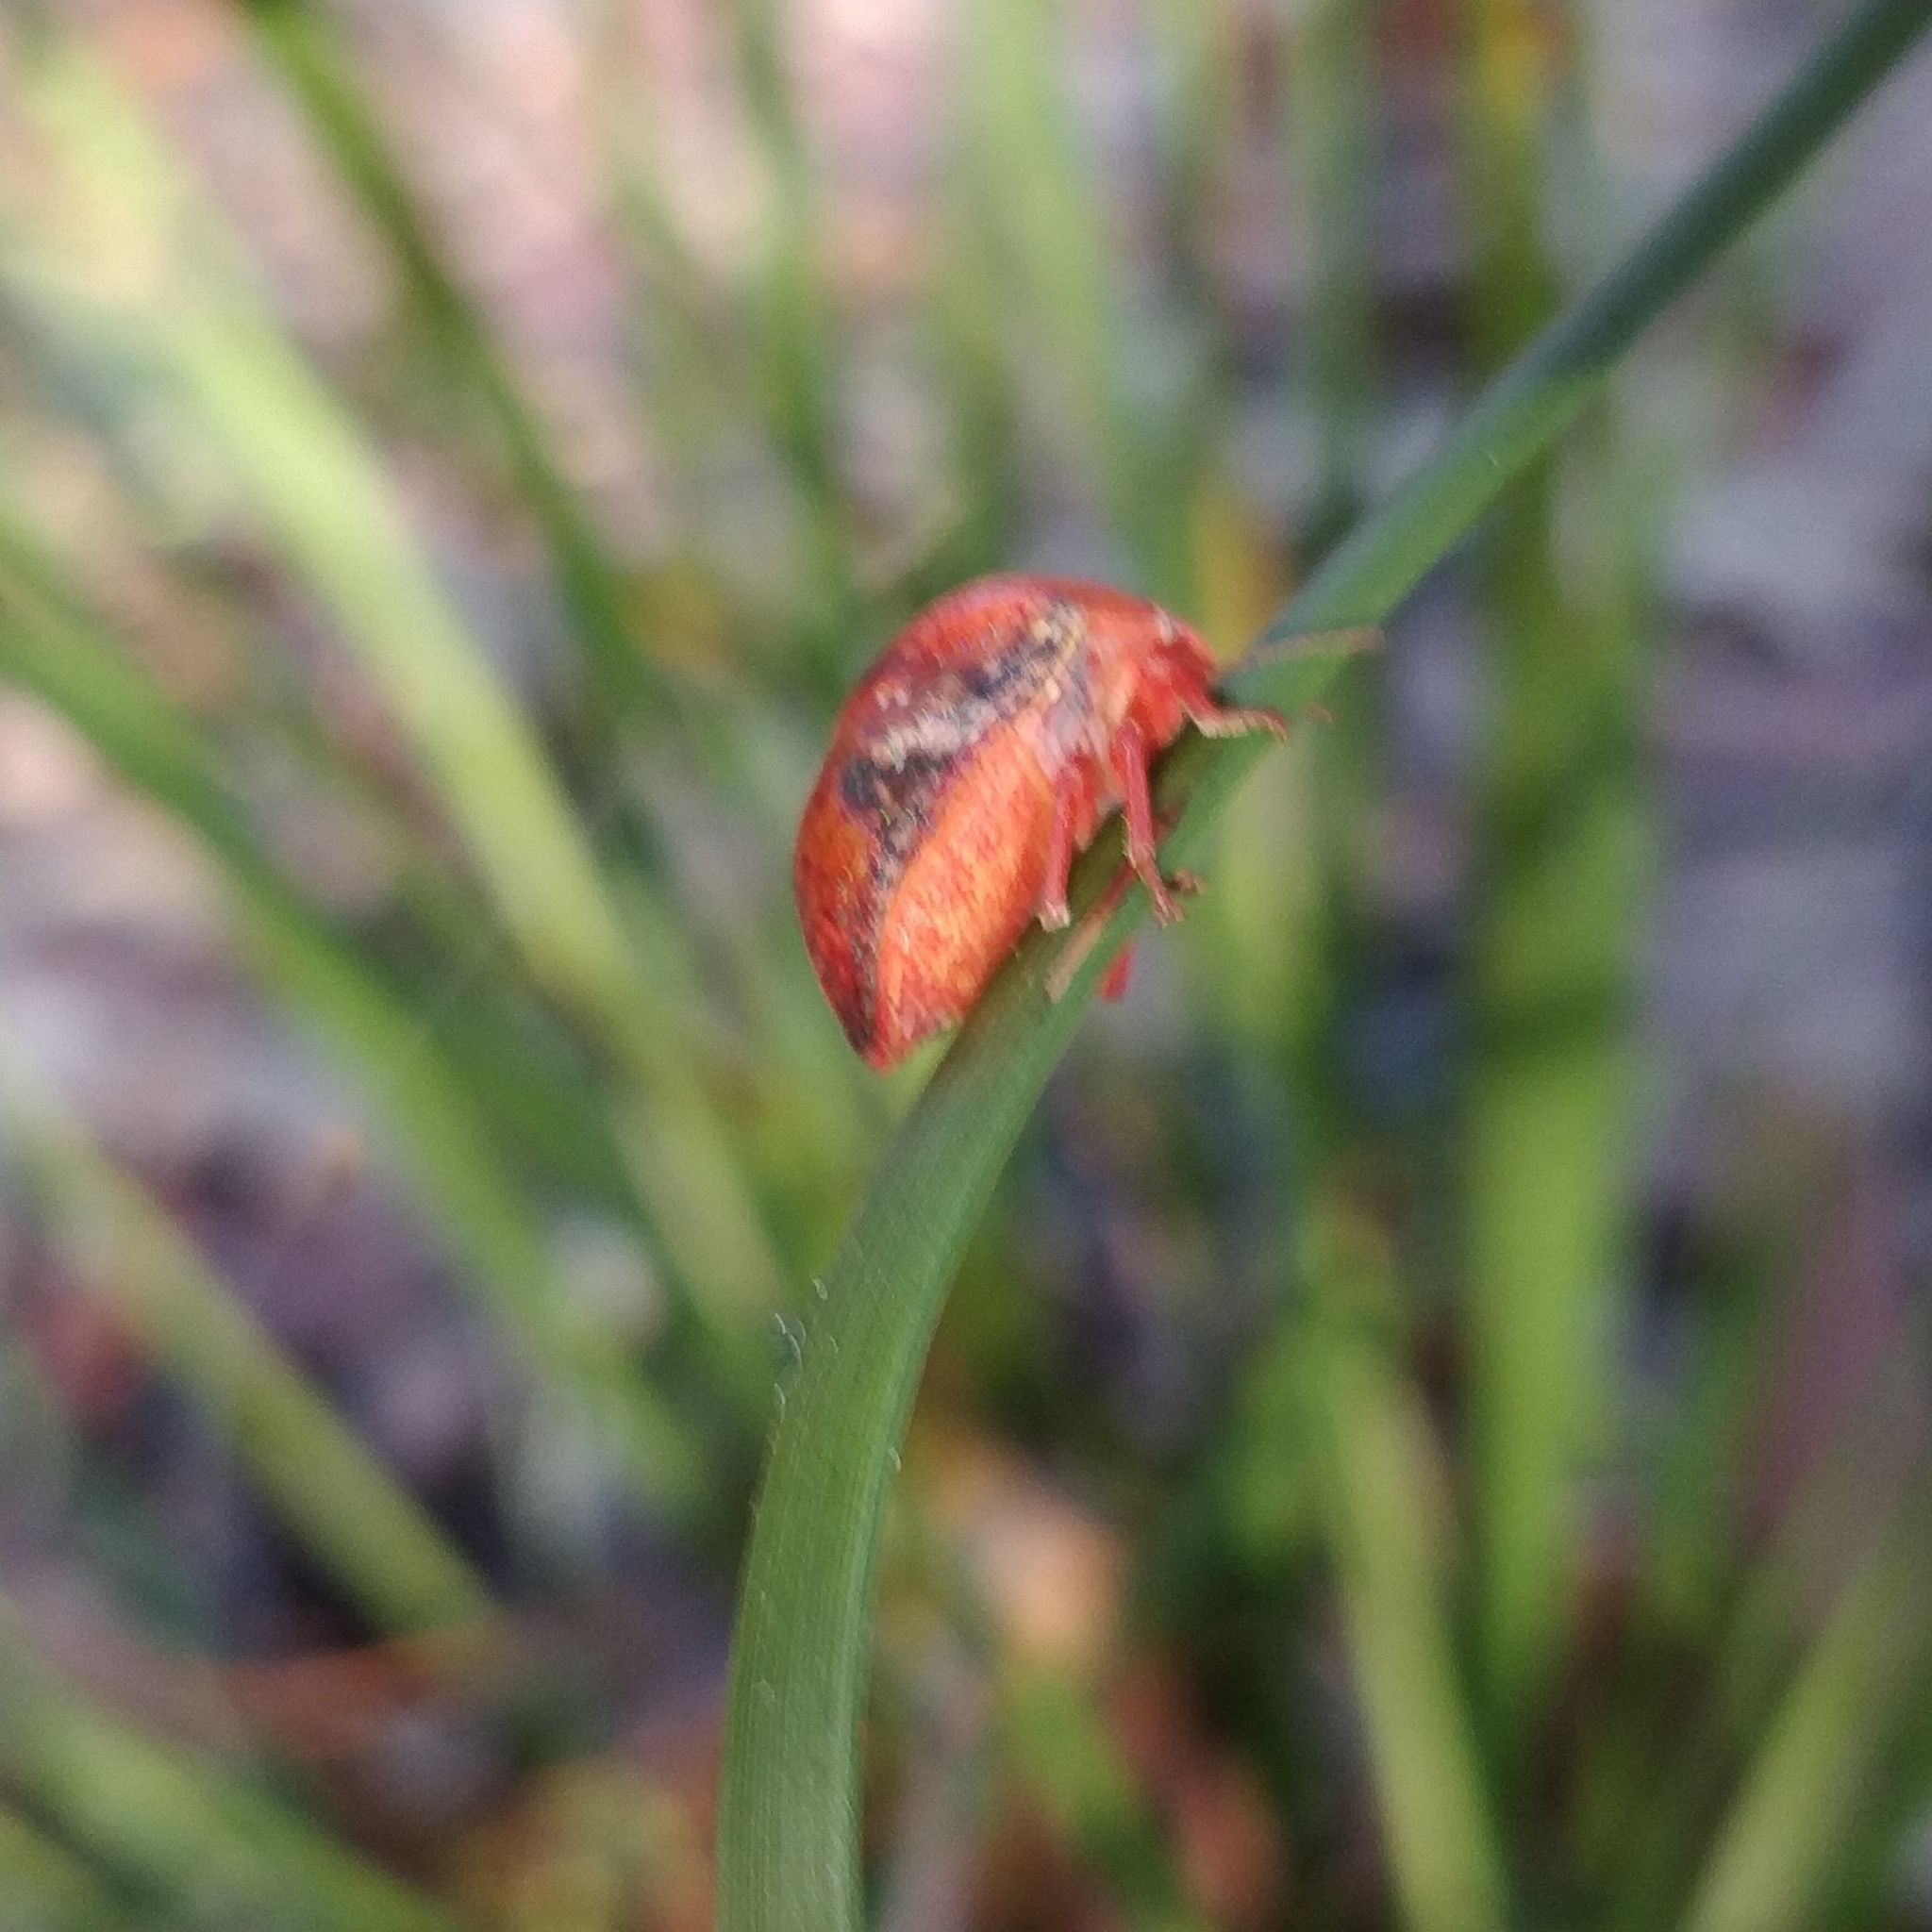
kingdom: Animalia
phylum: Arthropoda
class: Insecta
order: Hemiptera
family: Scutelleridae
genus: Solenotichus
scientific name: Solenotichus
